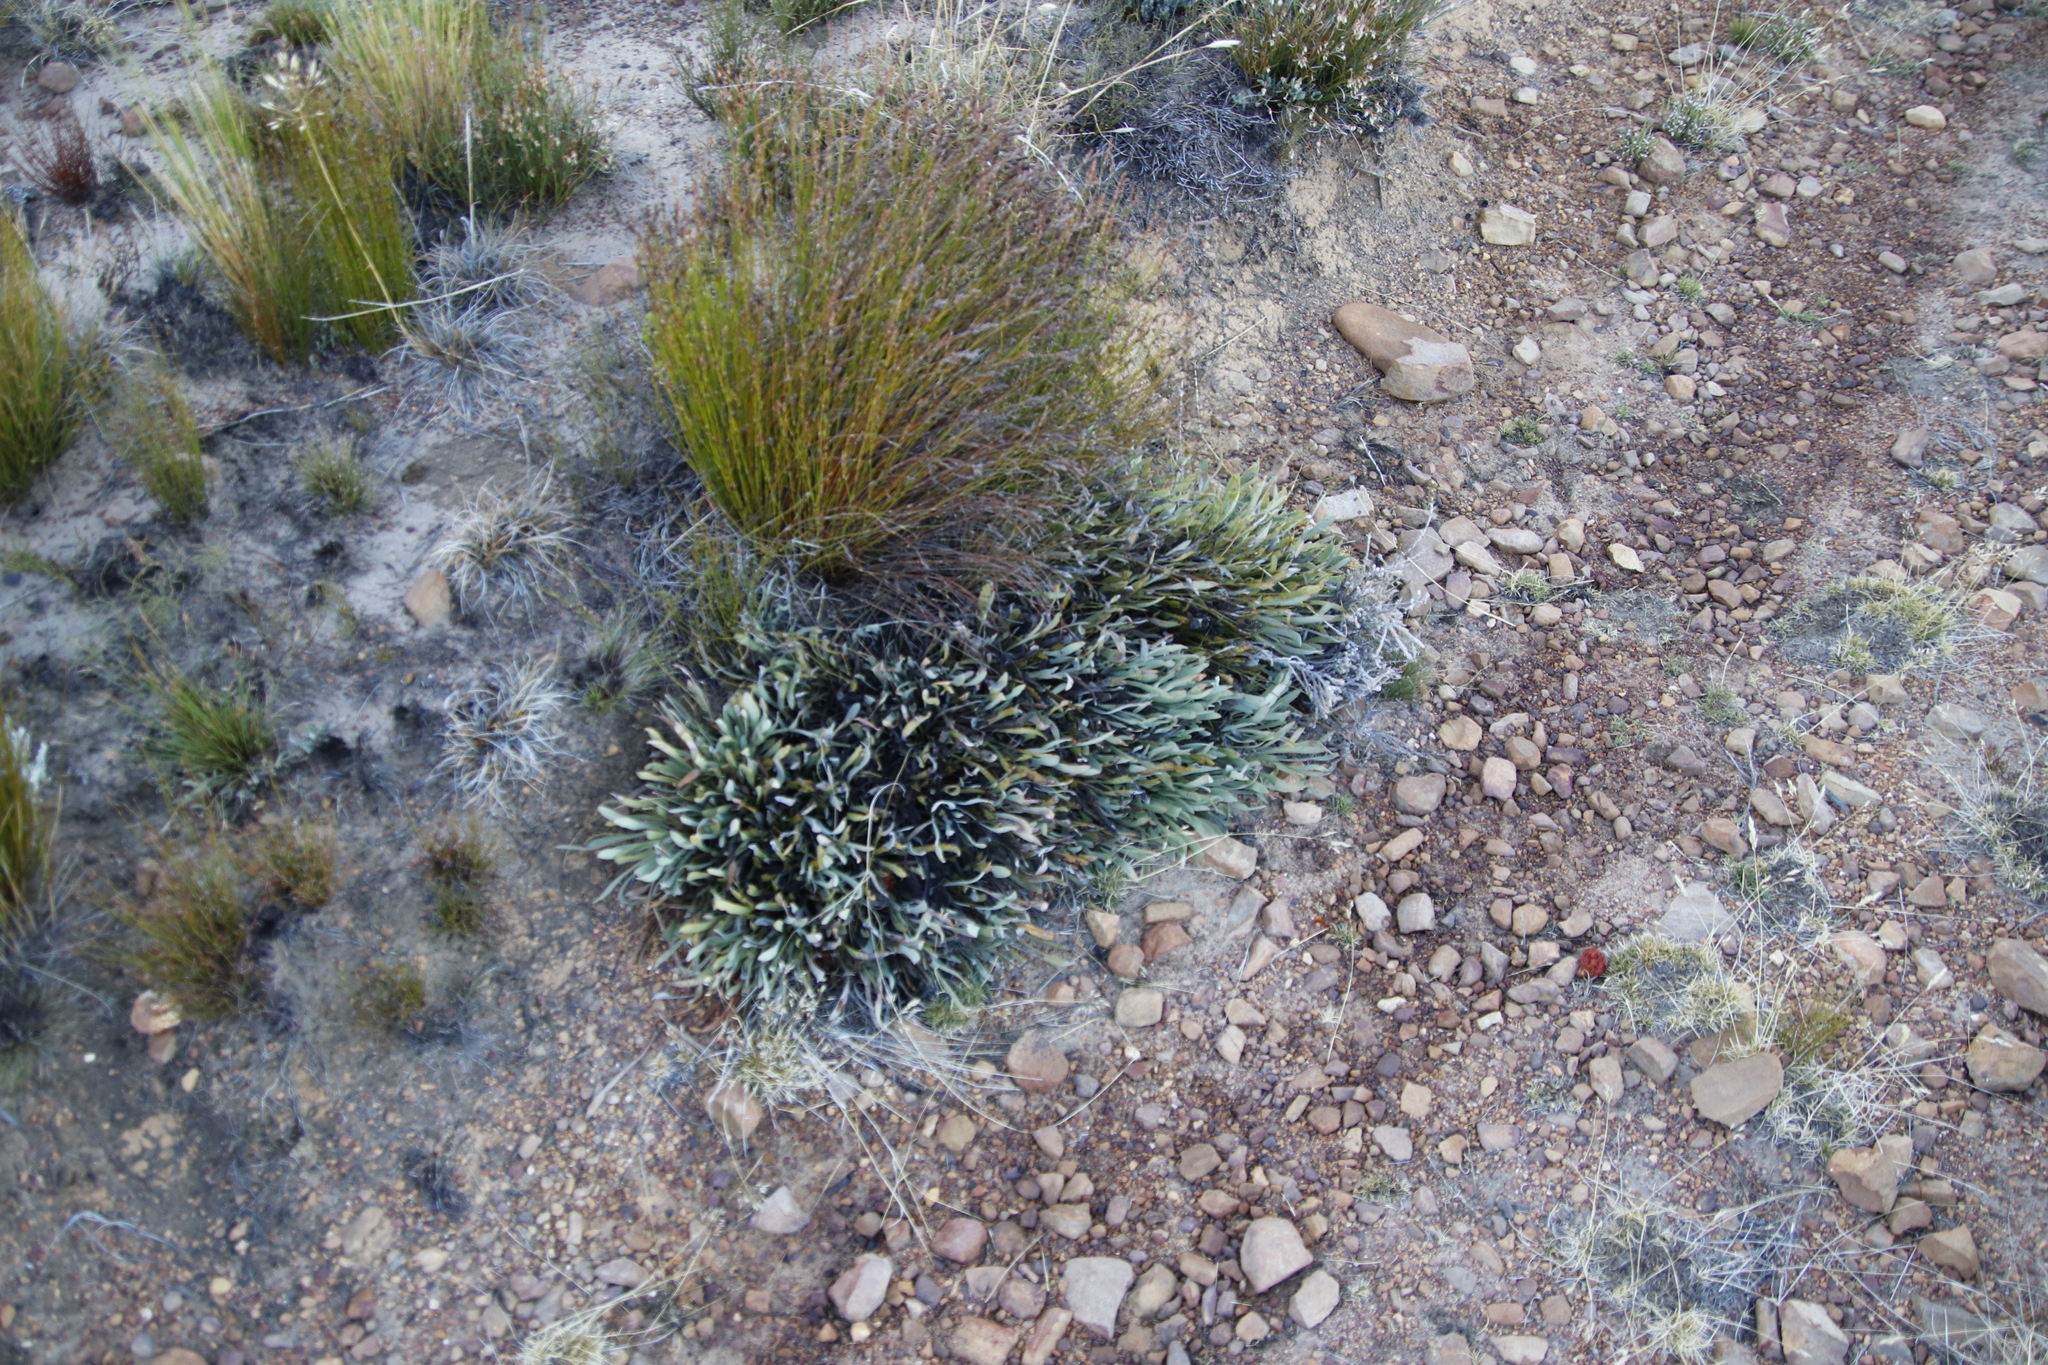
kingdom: Plantae
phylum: Tracheophyta
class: Magnoliopsida
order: Proteales
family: Proteaceae
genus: Protea
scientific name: Protea laevis
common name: Smooth-leaf sugarbush
